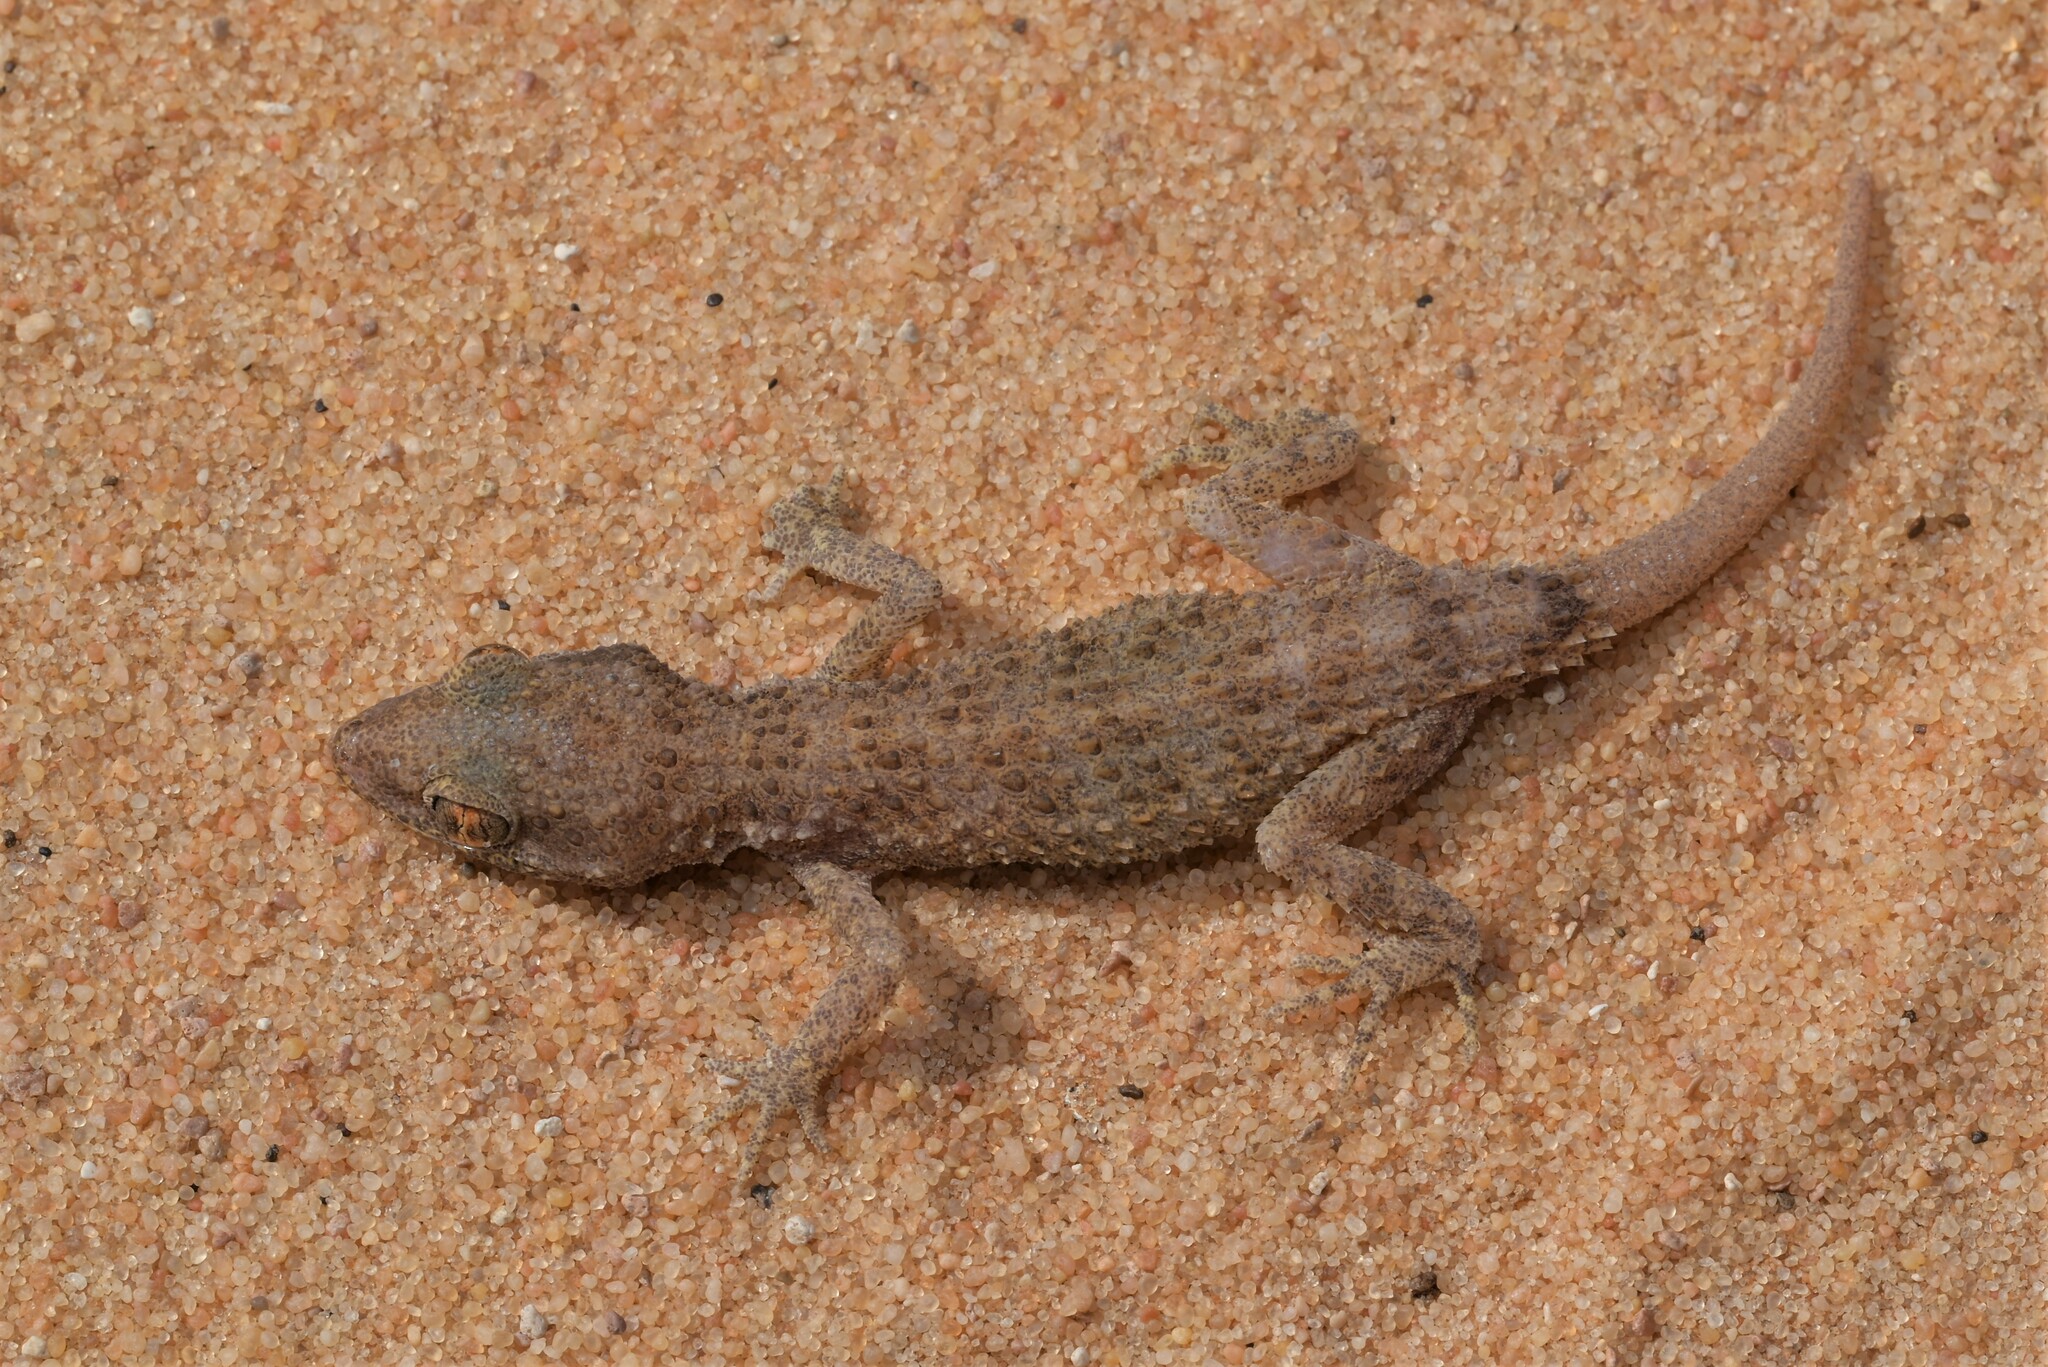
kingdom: Animalia
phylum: Chordata
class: Squamata
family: Gekkonidae
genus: Bunopus
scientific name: Bunopus tuberculatus
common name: Southern tuberculated gecko
